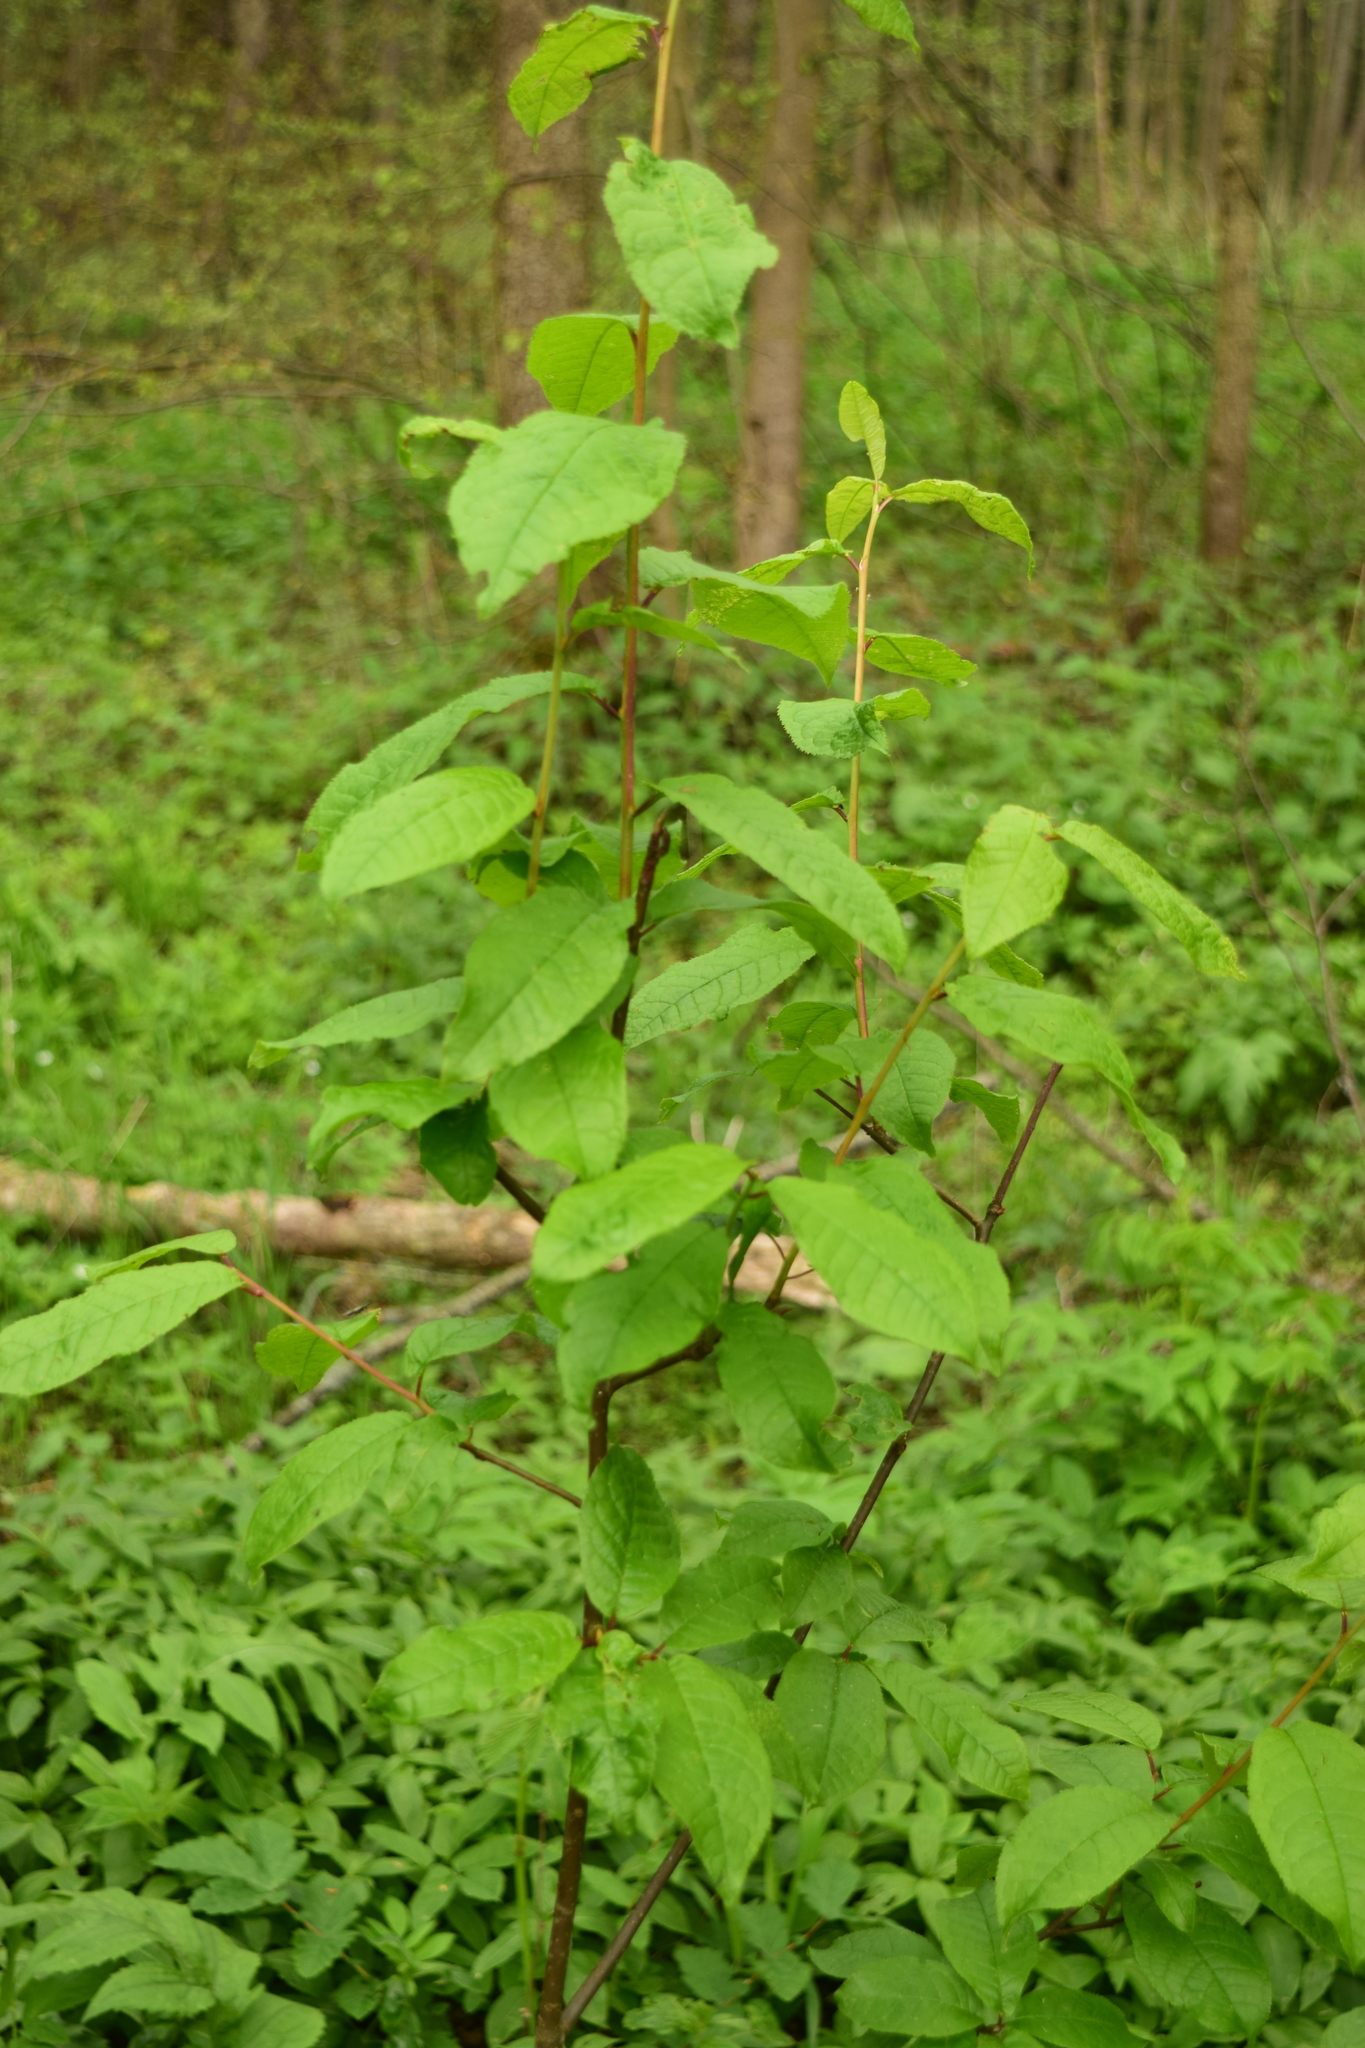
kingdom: Plantae
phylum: Tracheophyta
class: Magnoliopsida
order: Rosales
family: Rosaceae
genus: Prunus
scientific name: Prunus padus
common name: Bird cherry
